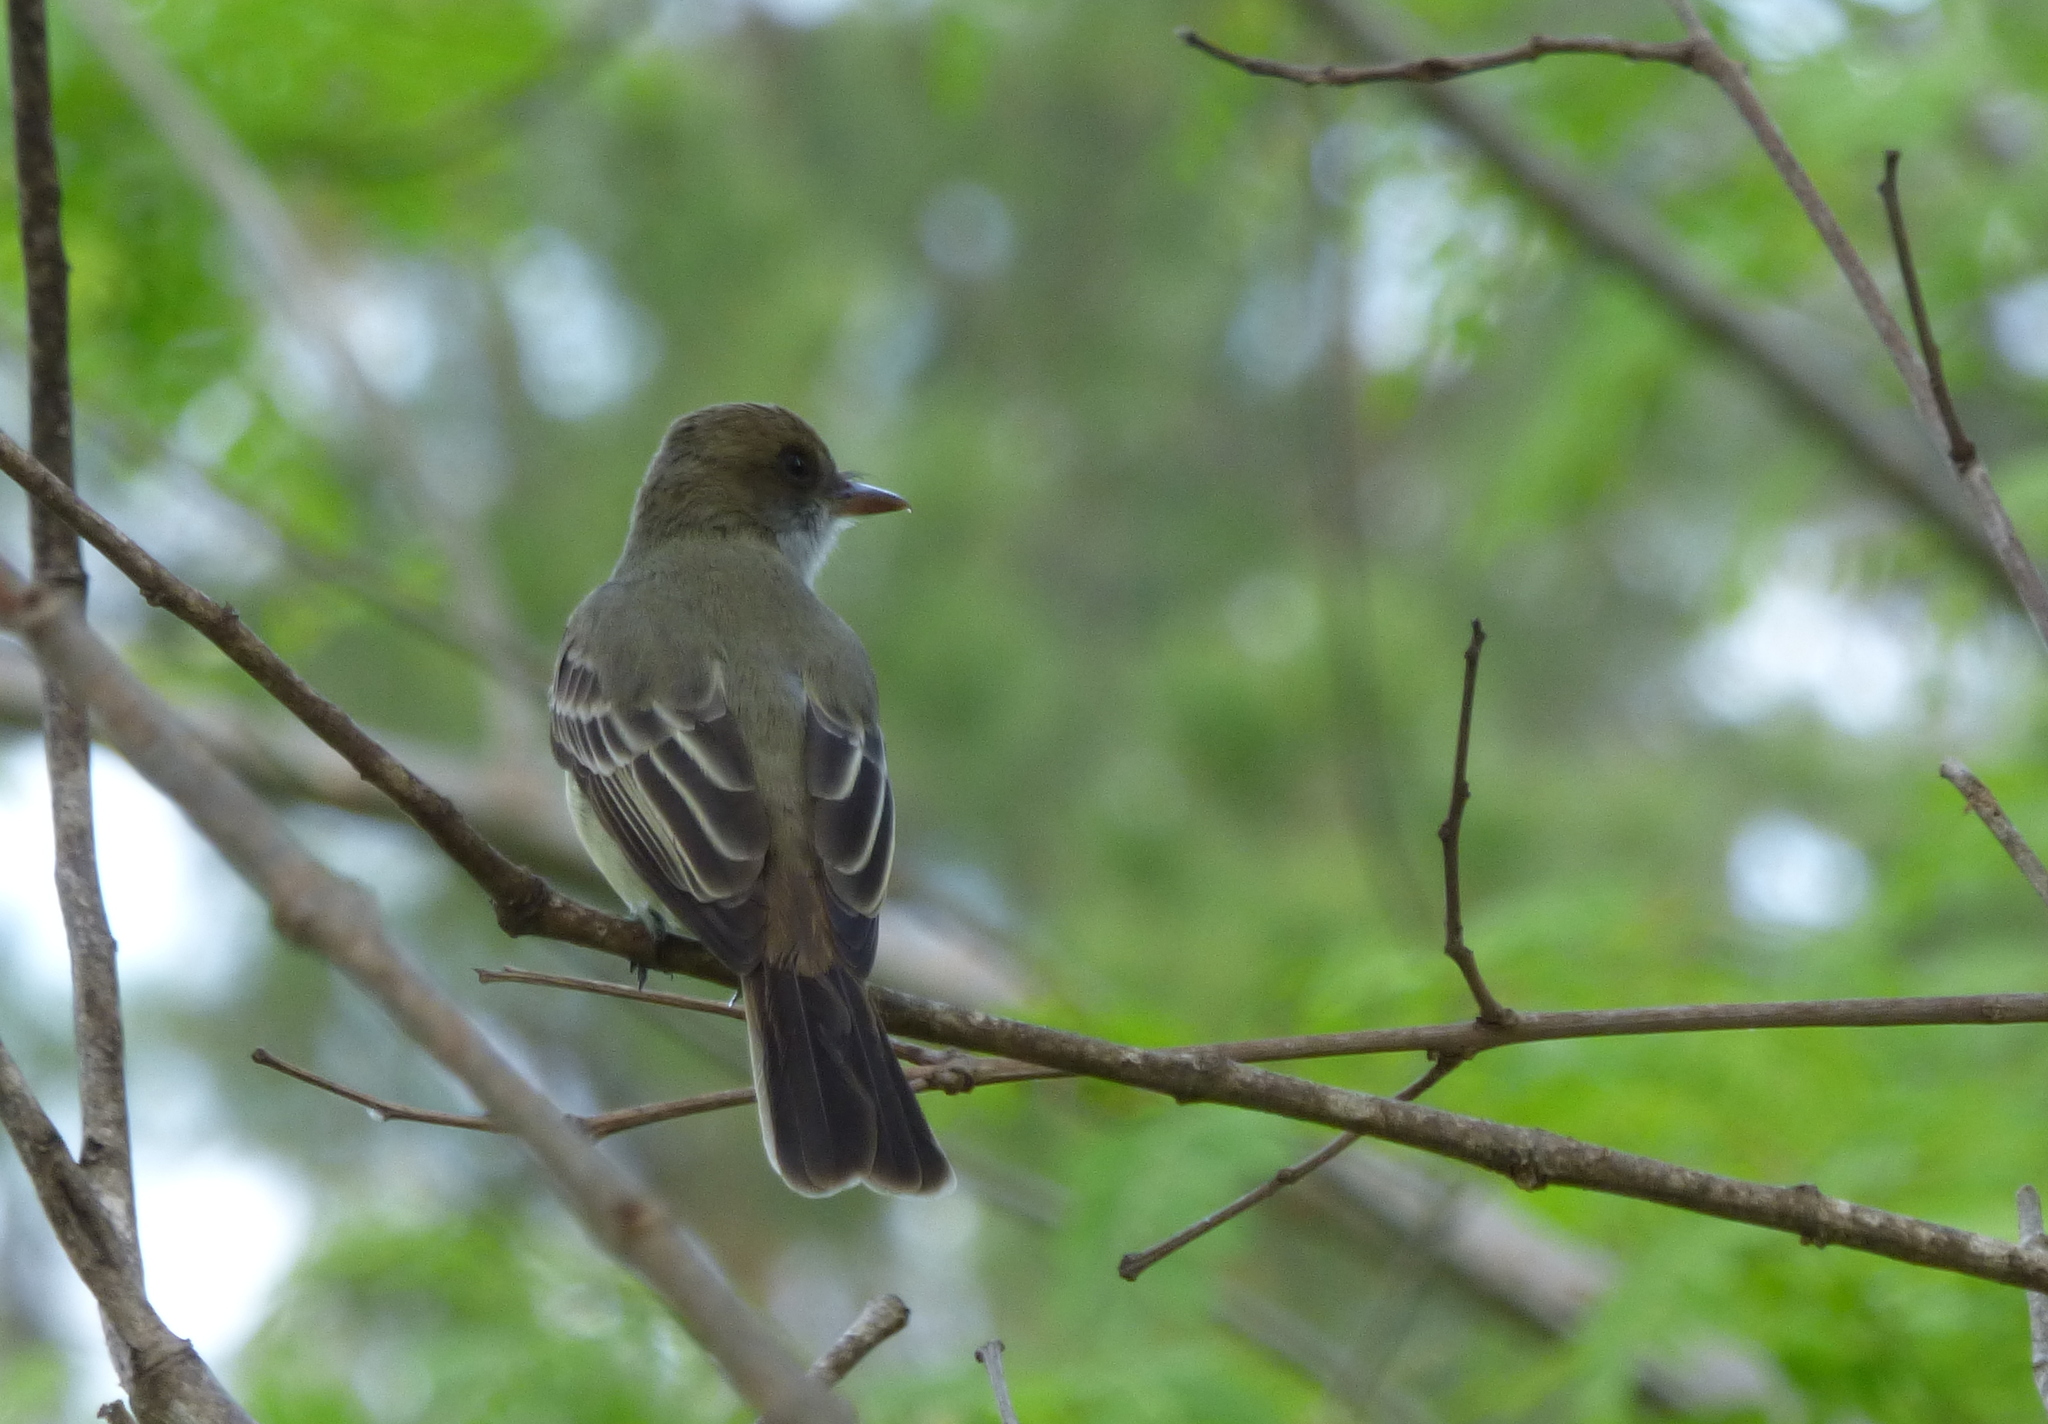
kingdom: Animalia
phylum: Chordata
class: Aves
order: Passeriformes
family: Tyrannidae
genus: Myiarchus
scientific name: Myiarchus swainsoni
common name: Swainson's flycatcher
